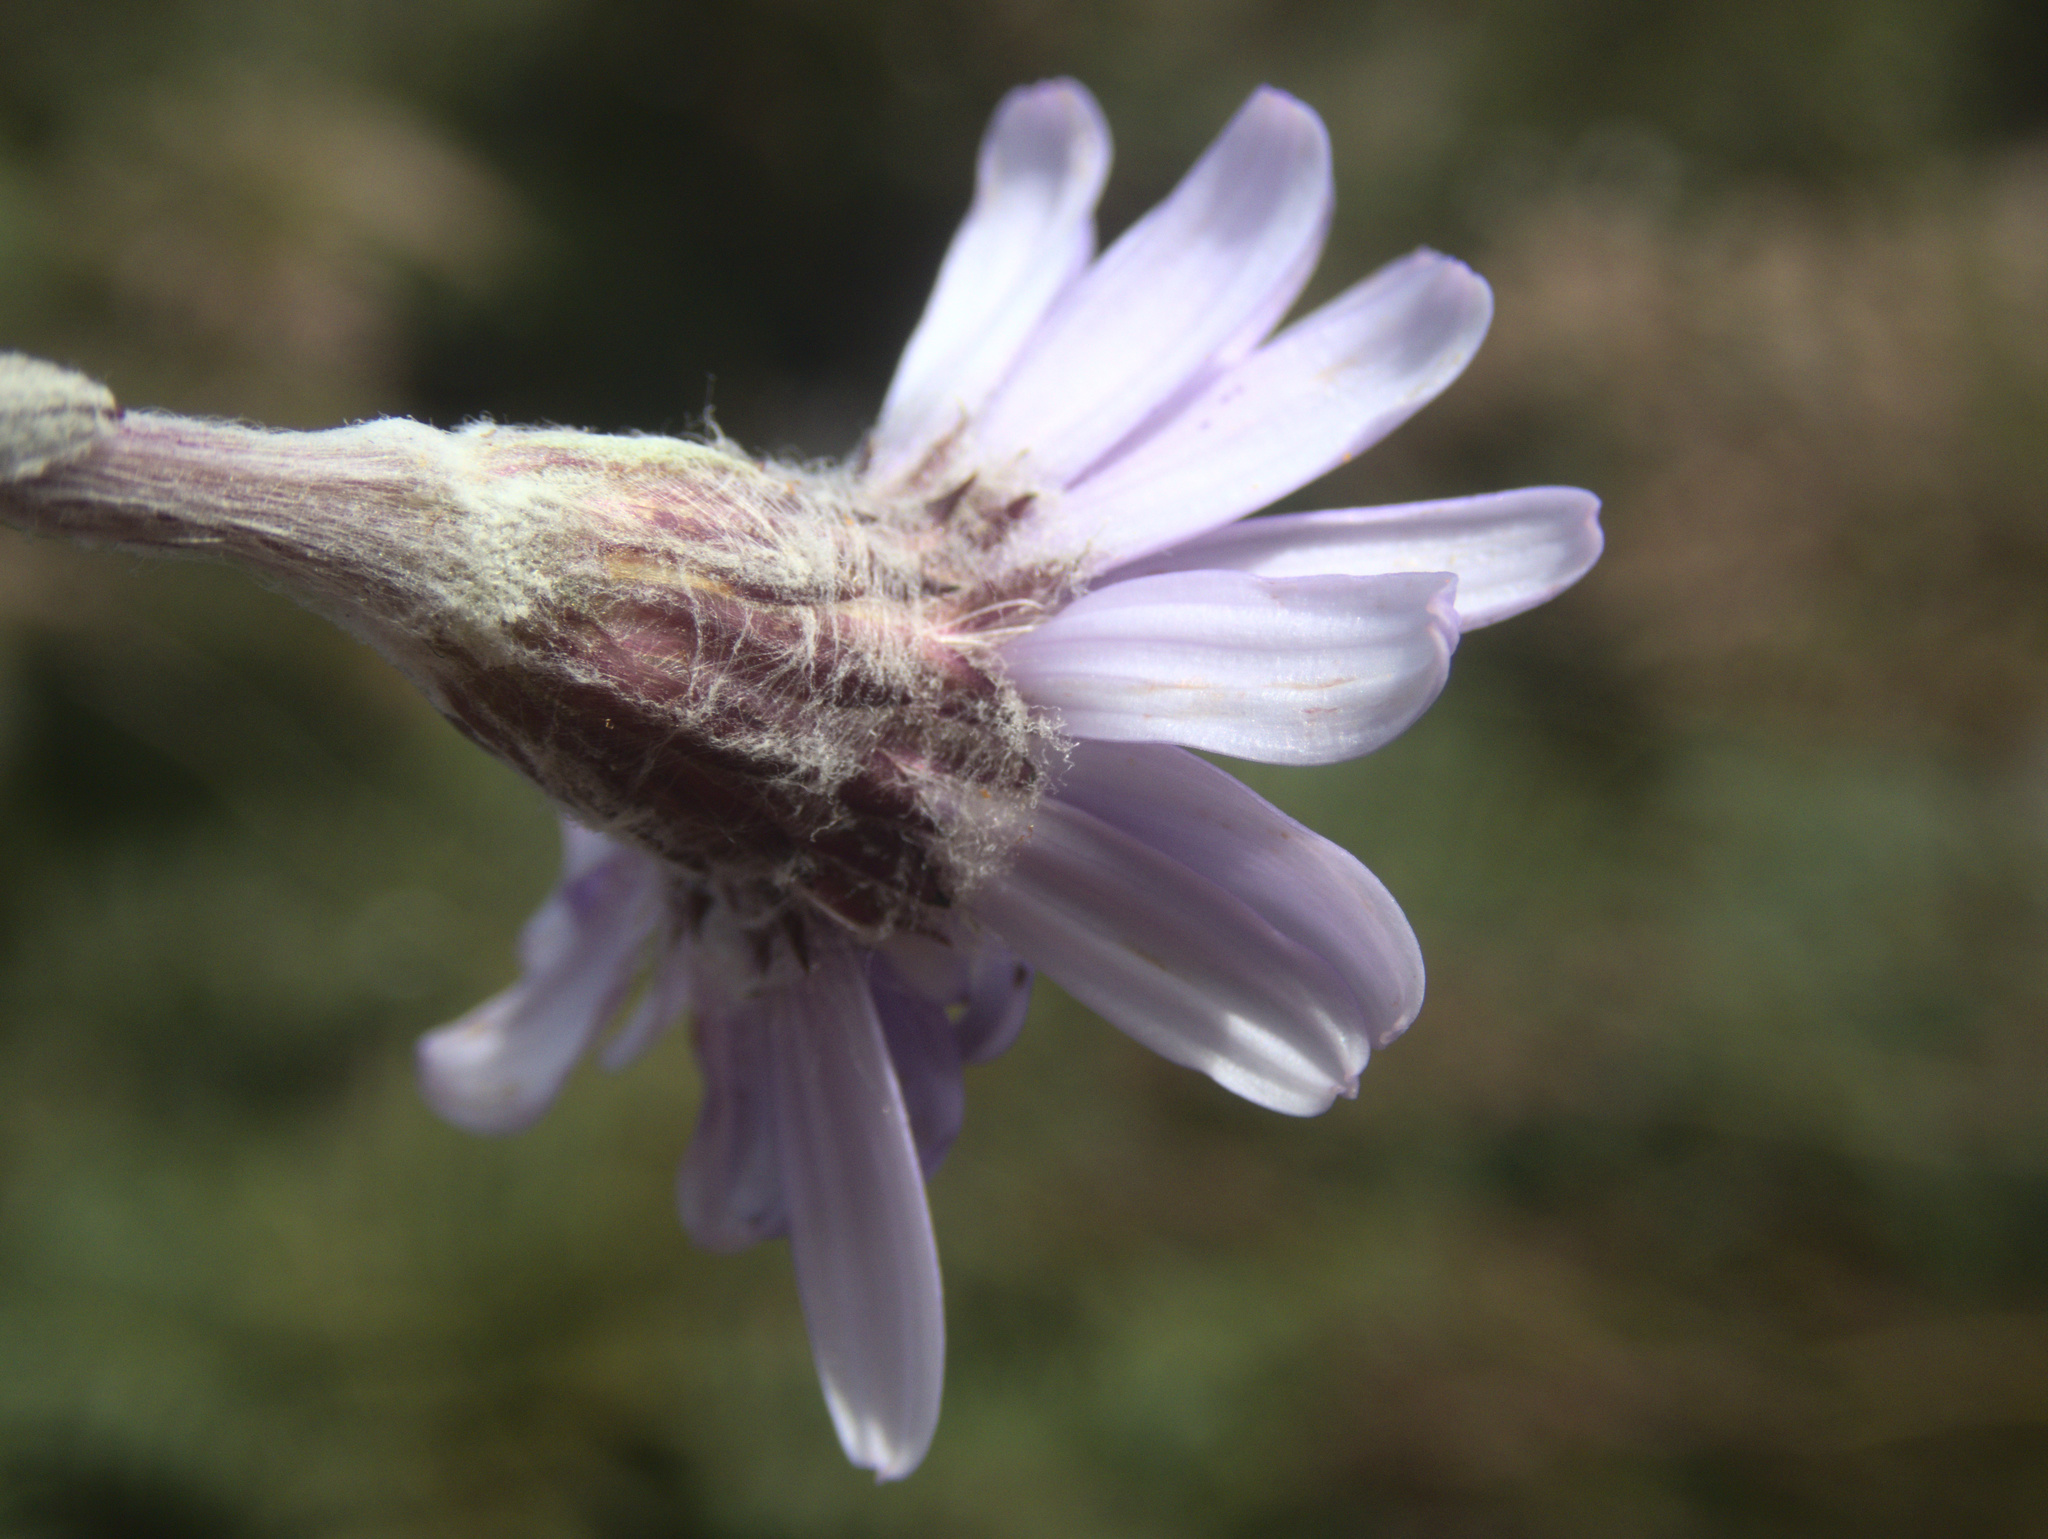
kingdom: Plantae
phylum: Tracheophyta
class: Magnoliopsida
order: Asterales
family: Asteraceae
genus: Macrolearia
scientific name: Macrolearia semidentata
